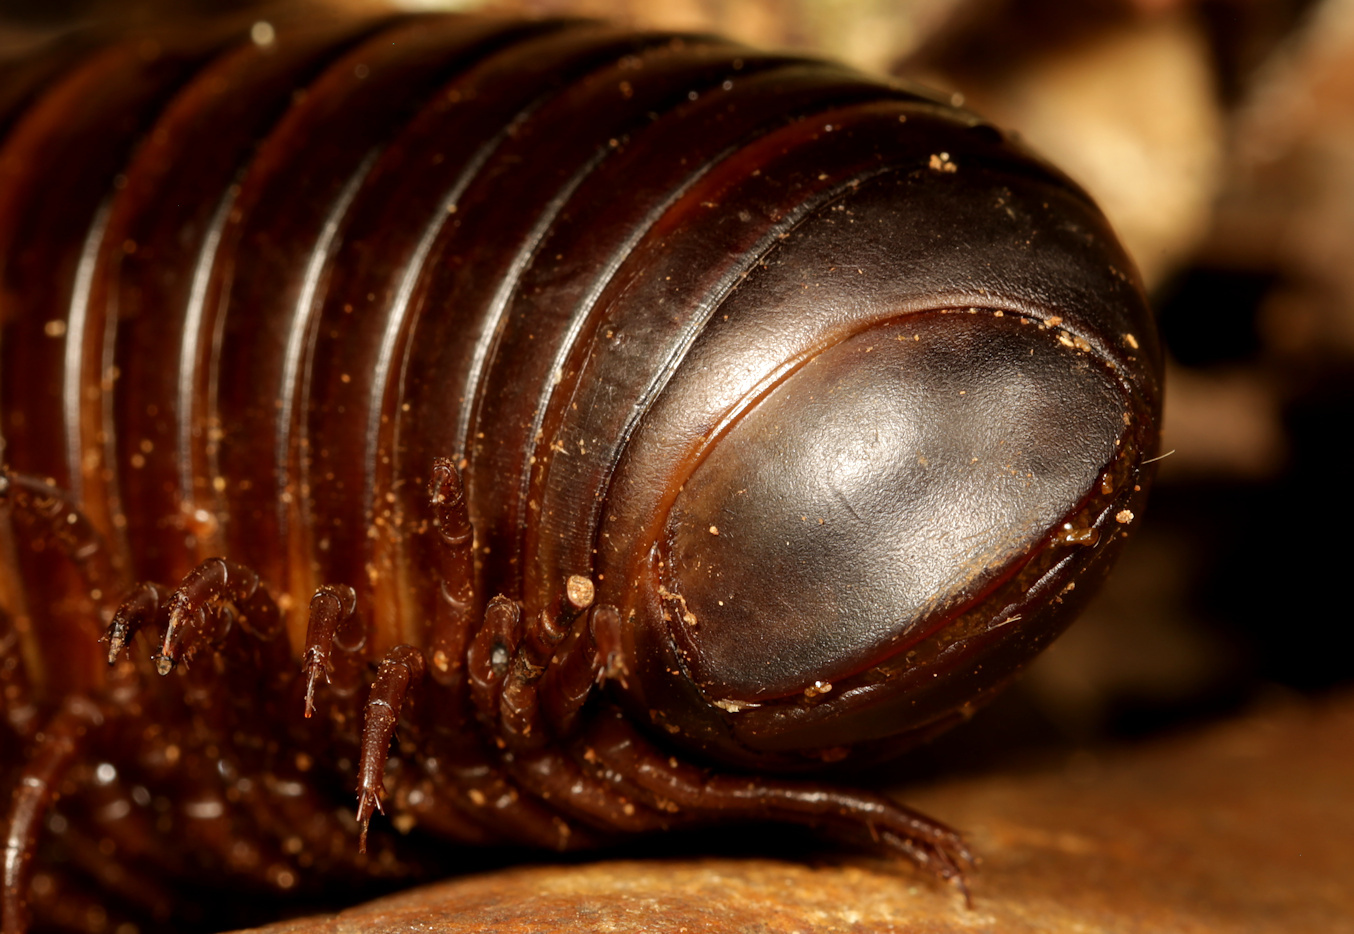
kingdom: Animalia
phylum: Arthropoda
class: Diplopoda
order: Spirostreptida
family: Spirostreptidae
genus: Spirostreptus
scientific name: Spirostreptus kruegeri
